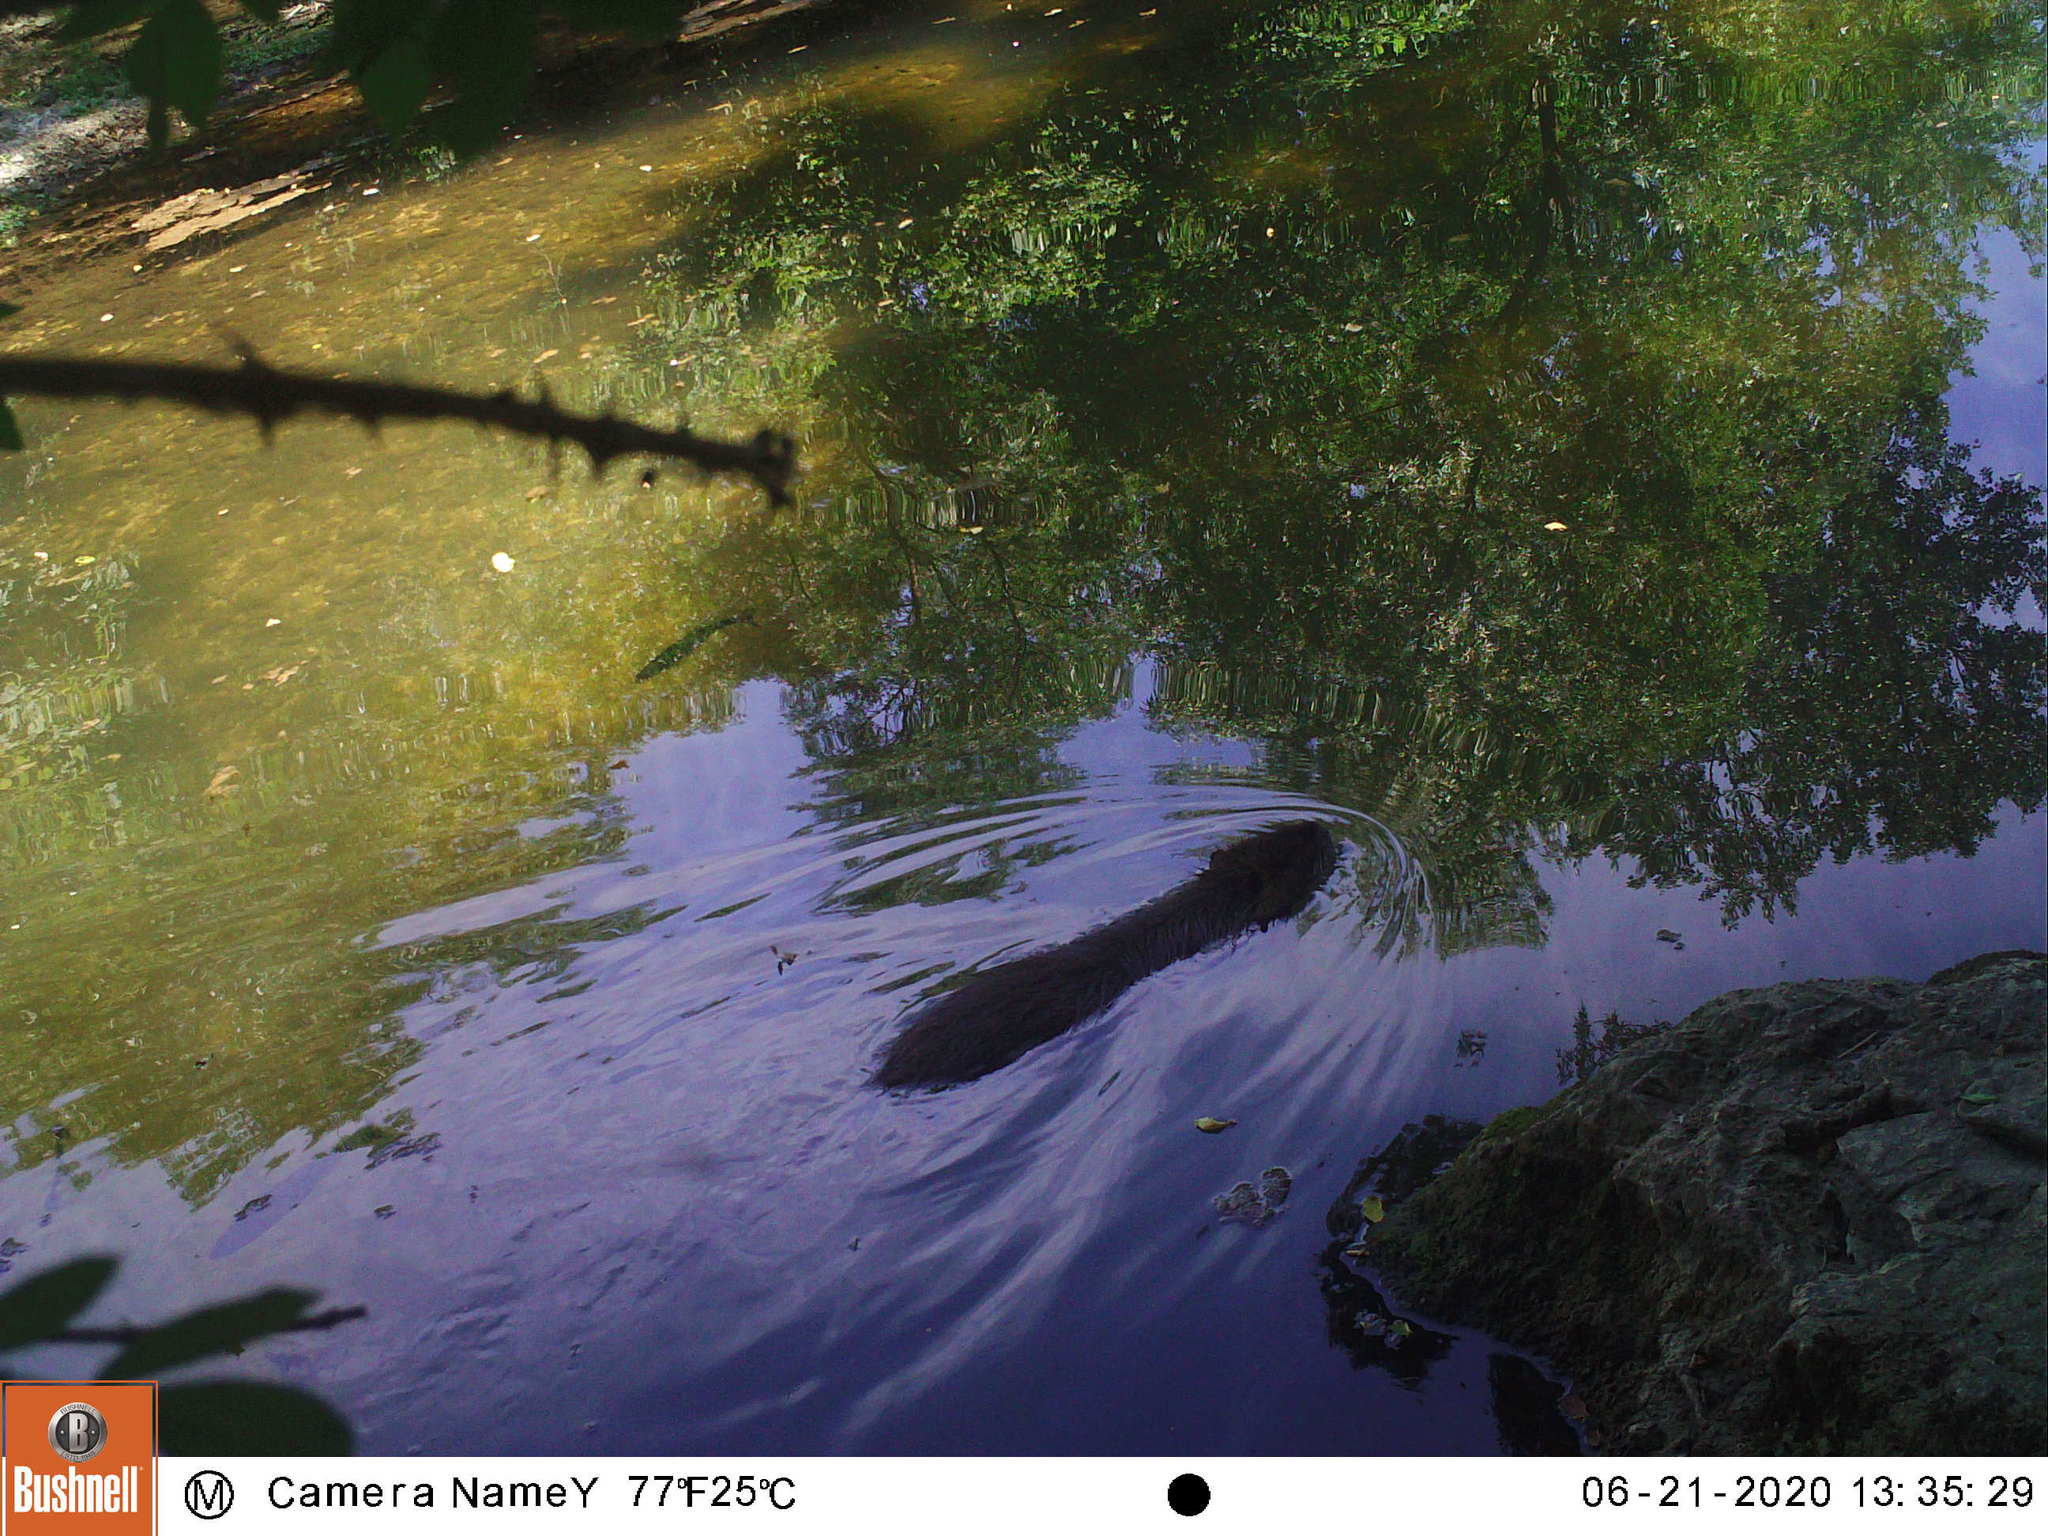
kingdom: Animalia
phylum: Chordata
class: Mammalia
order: Rodentia
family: Myocastoridae
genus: Myocastor
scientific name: Myocastor coypus
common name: Coypu
